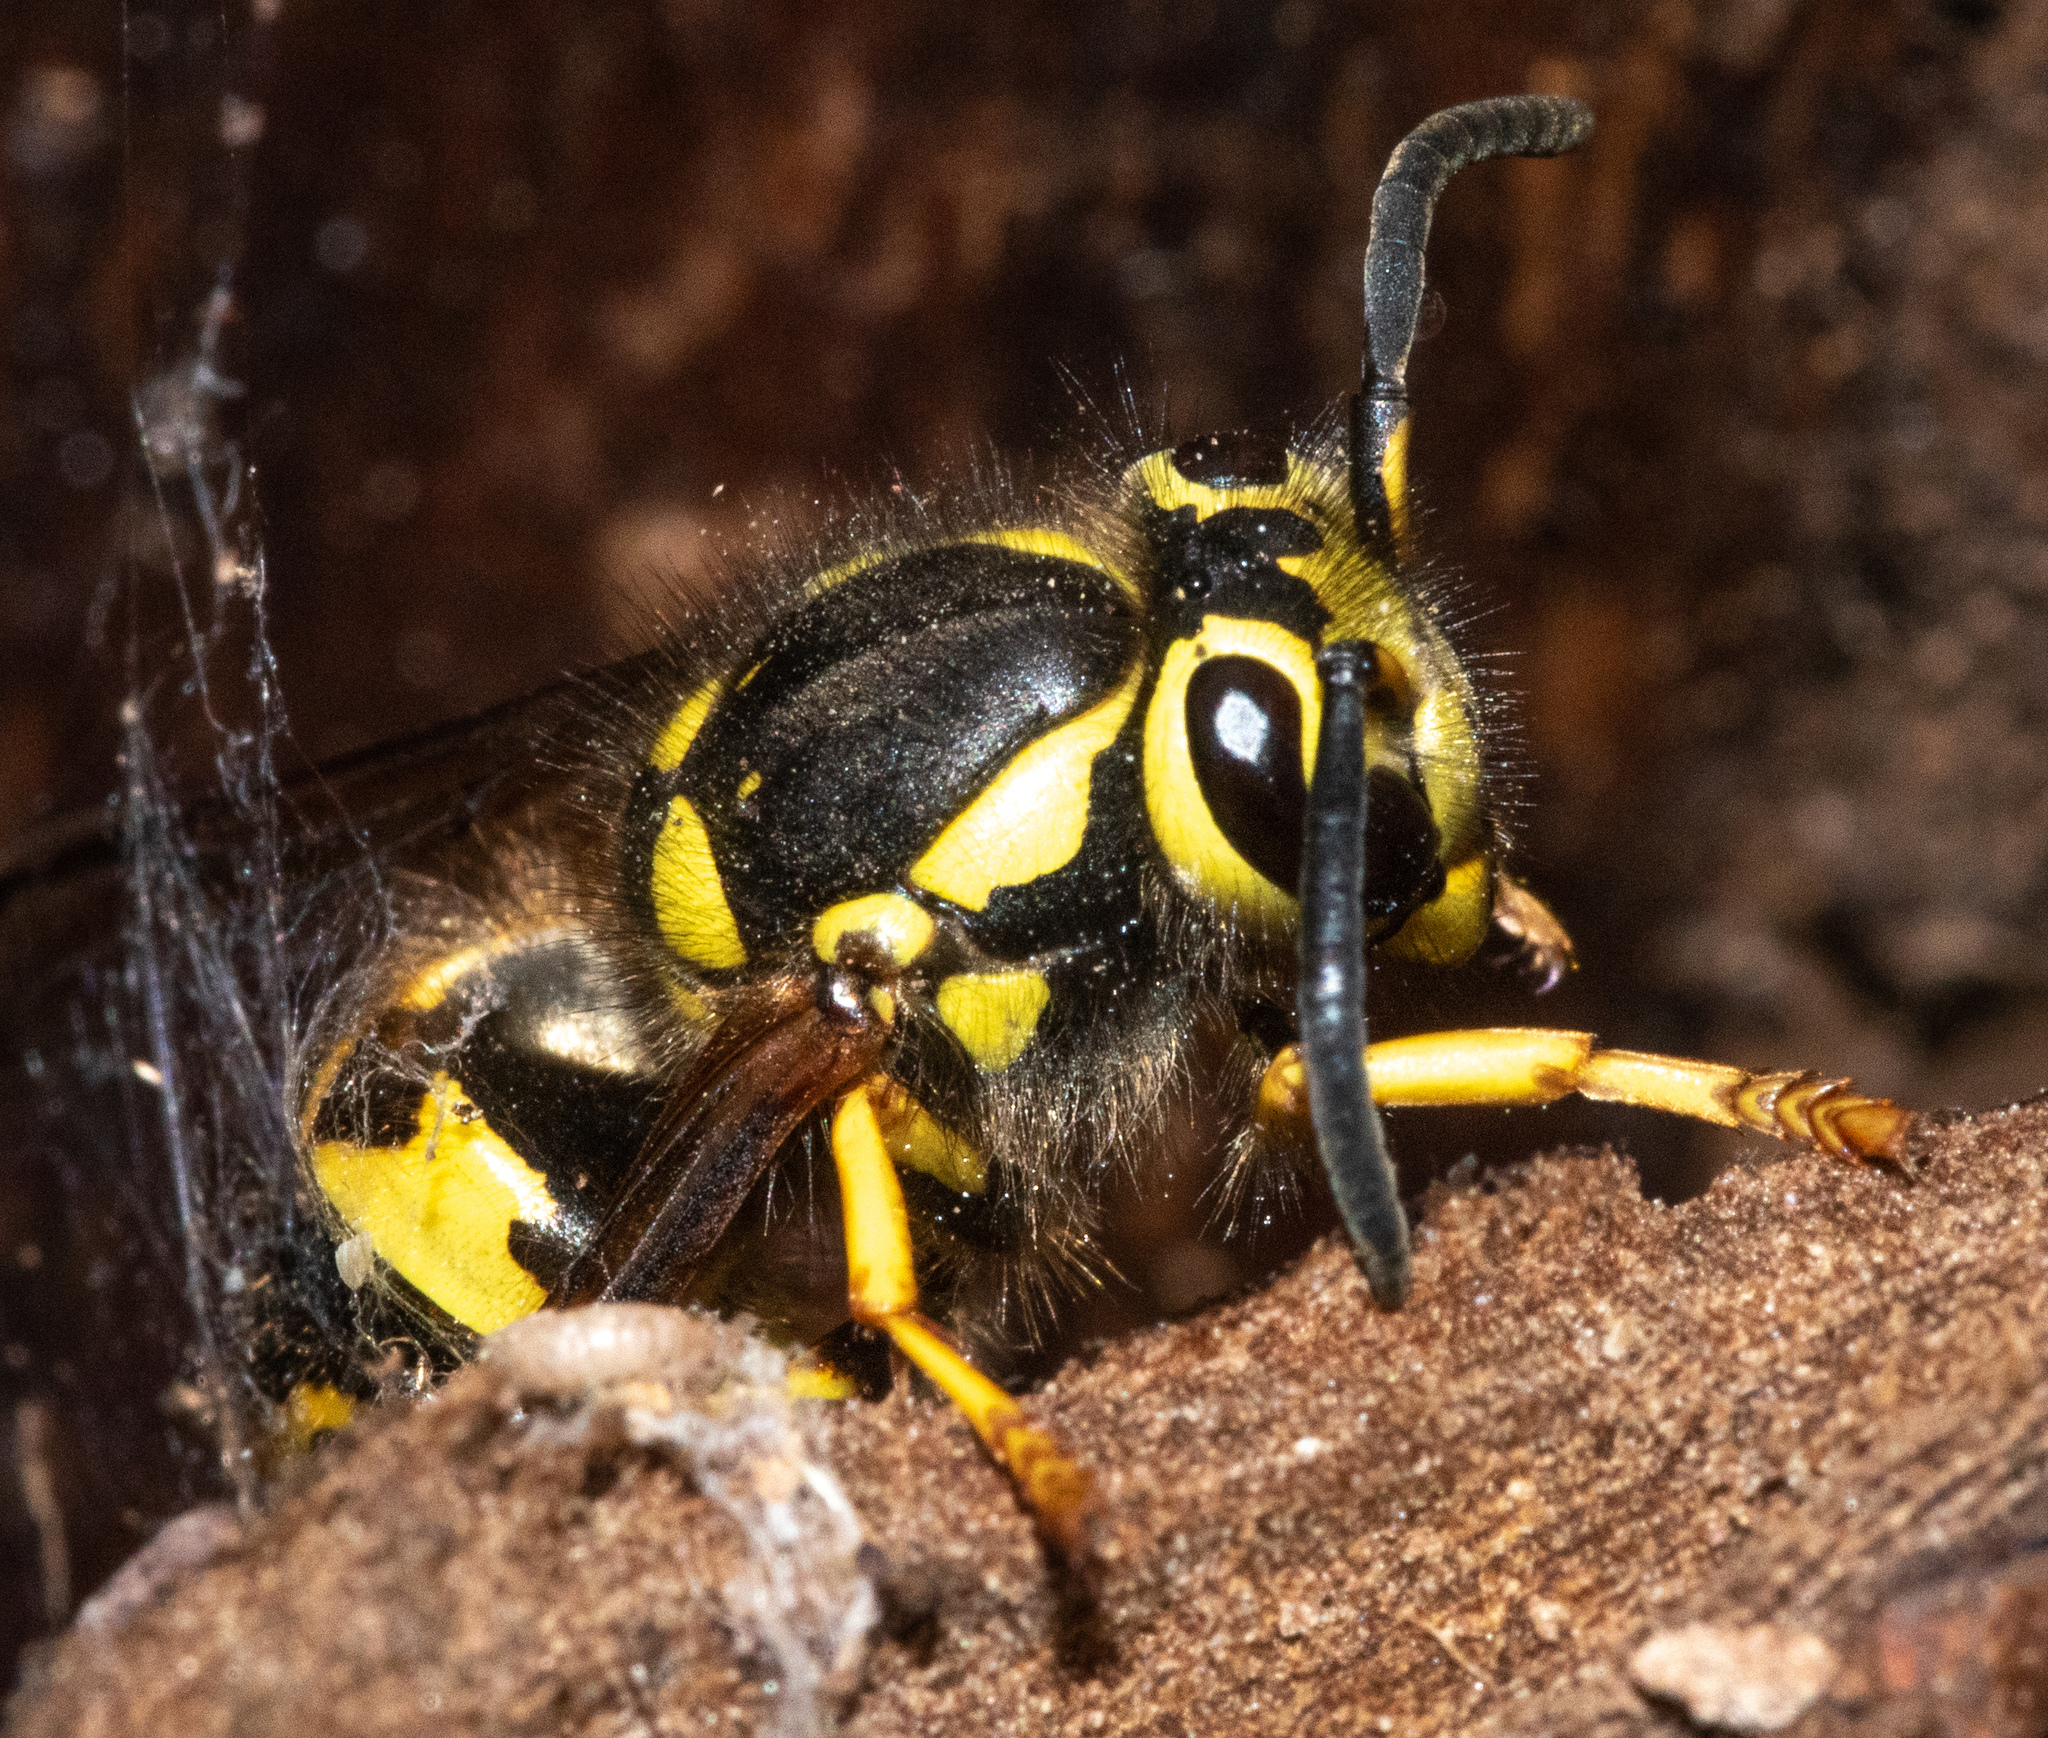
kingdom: Animalia
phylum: Arthropoda
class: Insecta
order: Hymenoptera
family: Vespidae
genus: Vespula
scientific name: Vespula pensylvanica
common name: Western yellowjacket
